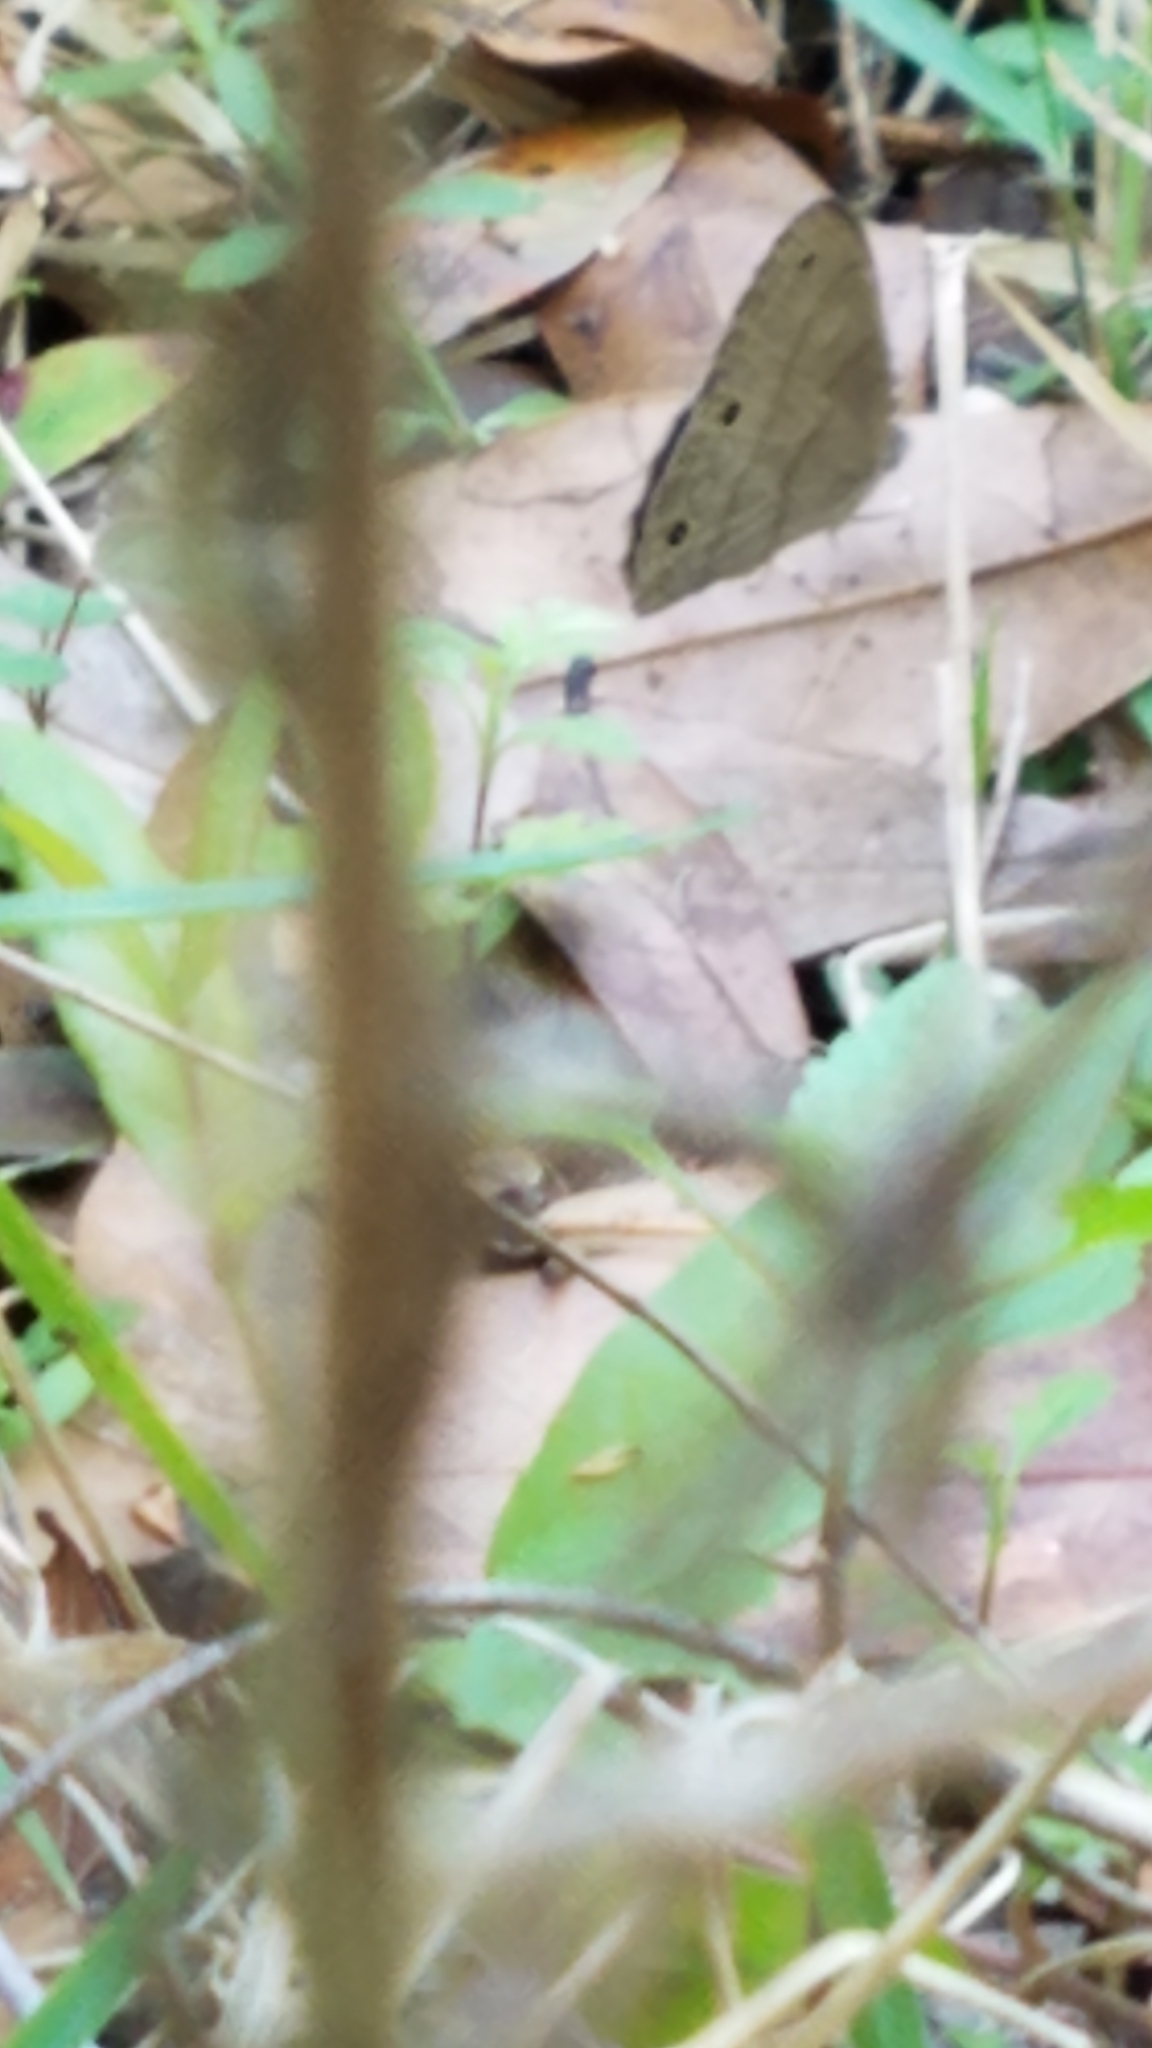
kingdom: Animalia
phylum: Arthropoda
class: Insecta
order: Lepidoptera
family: Nymphalidae
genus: Hermeuptychia
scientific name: Hermeuptychia intricata
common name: Intricate satyr
